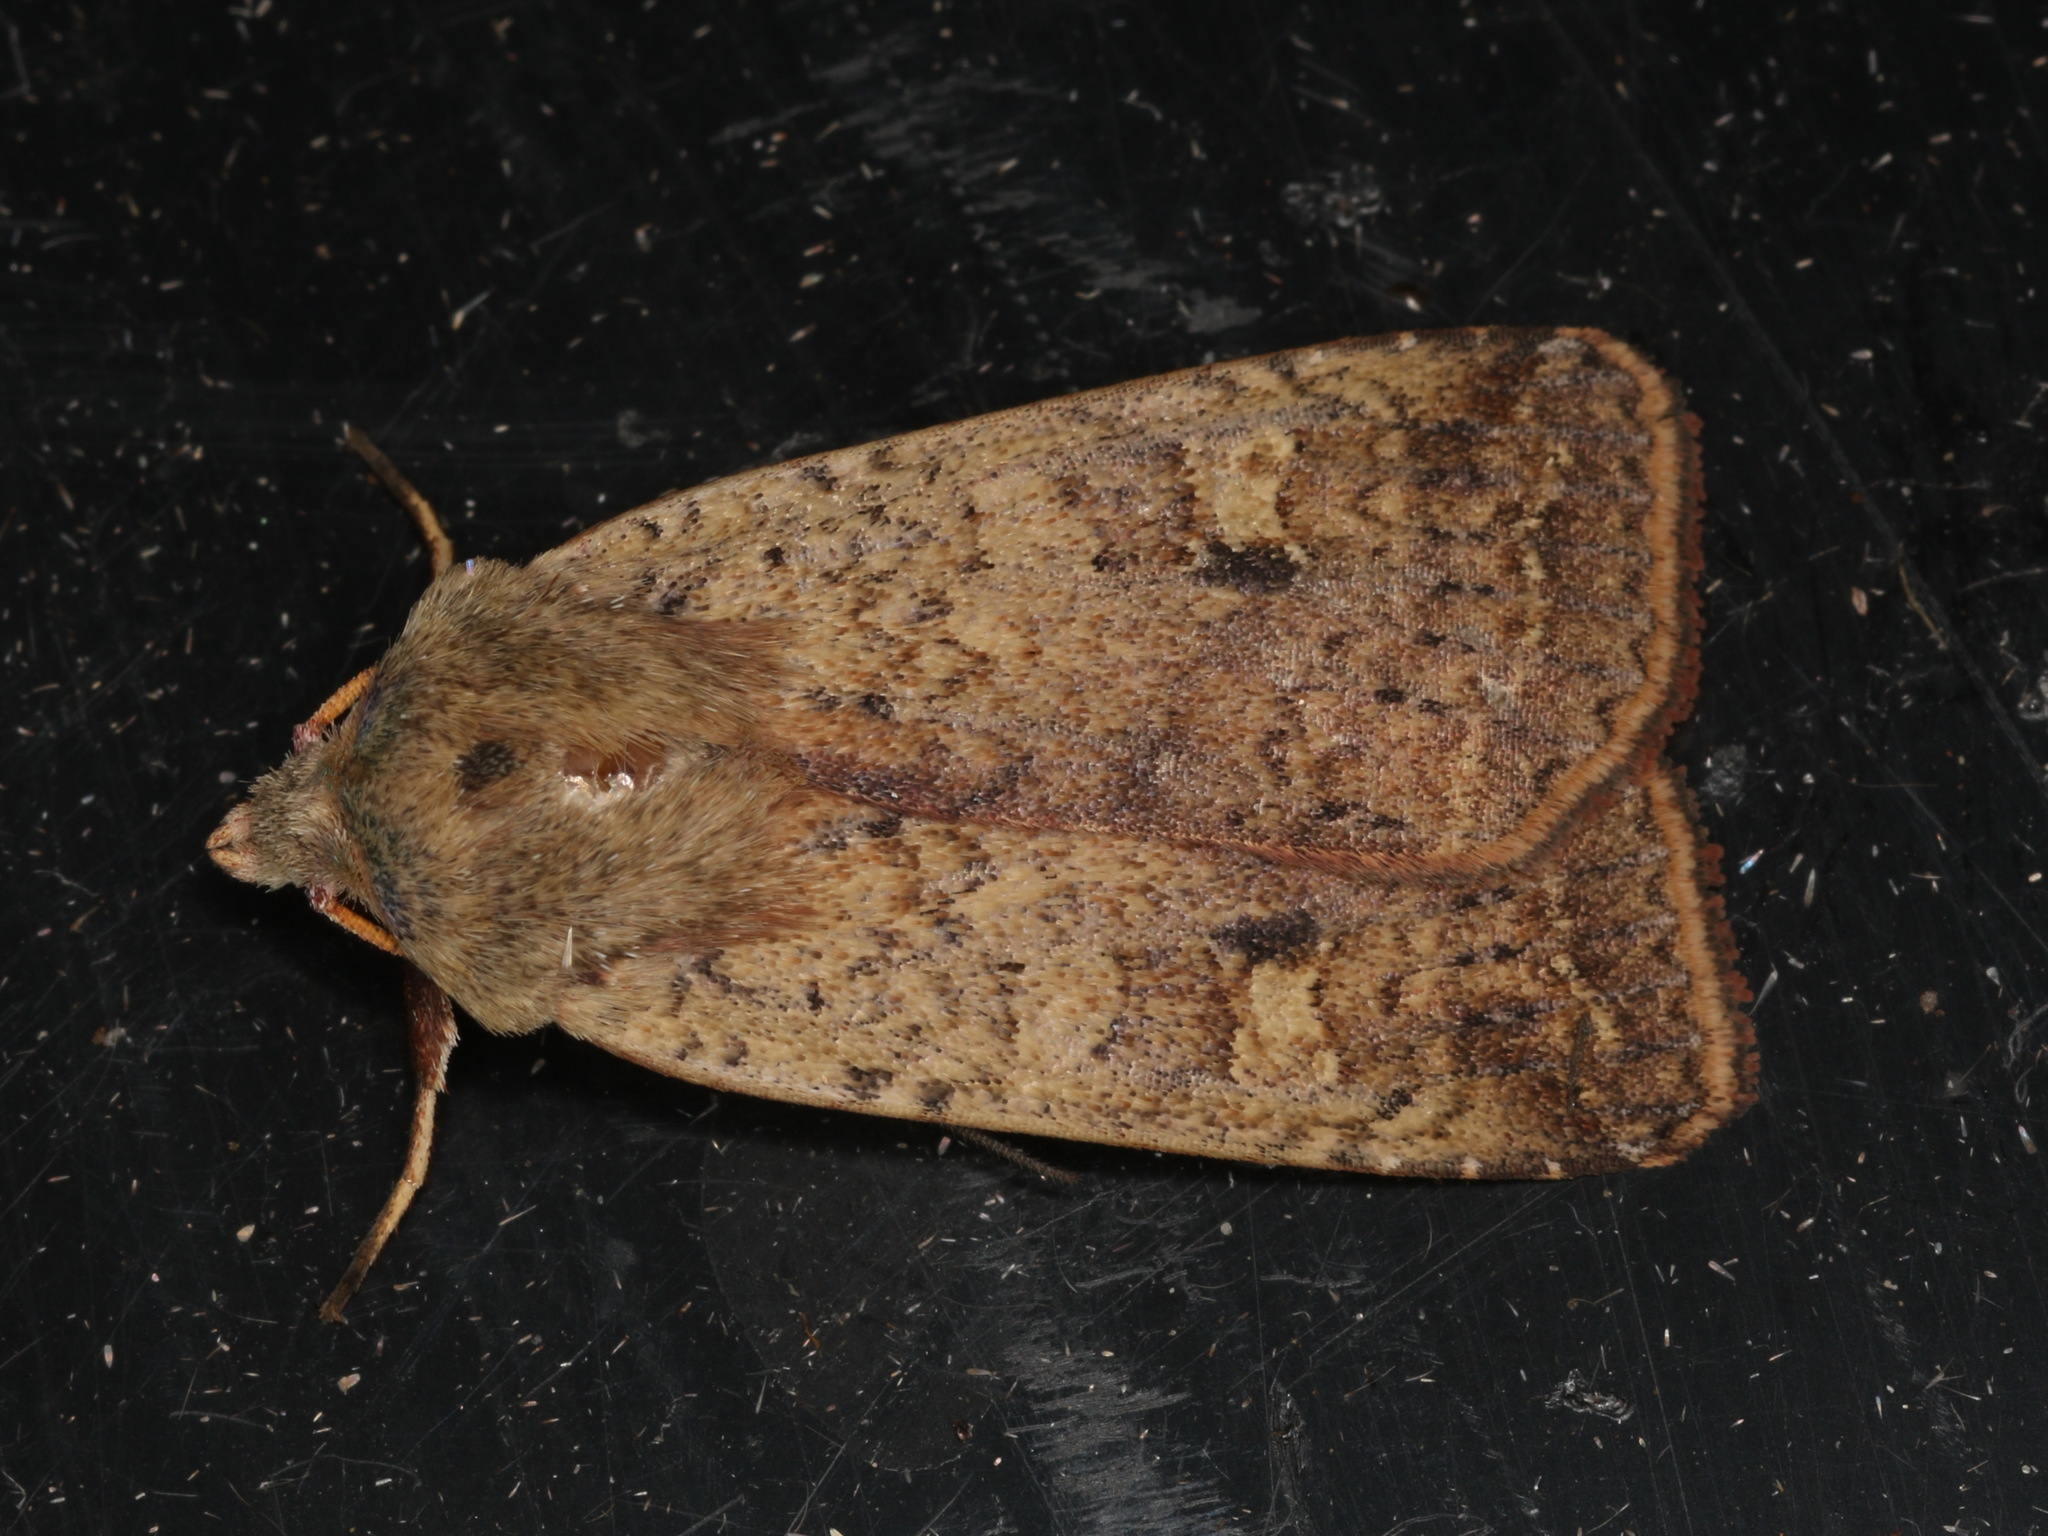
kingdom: Animalia
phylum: Arthropoda
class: Insecta
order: Lepidoptera
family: Noctuidae
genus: Diarsia
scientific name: Diarsia intermixta
